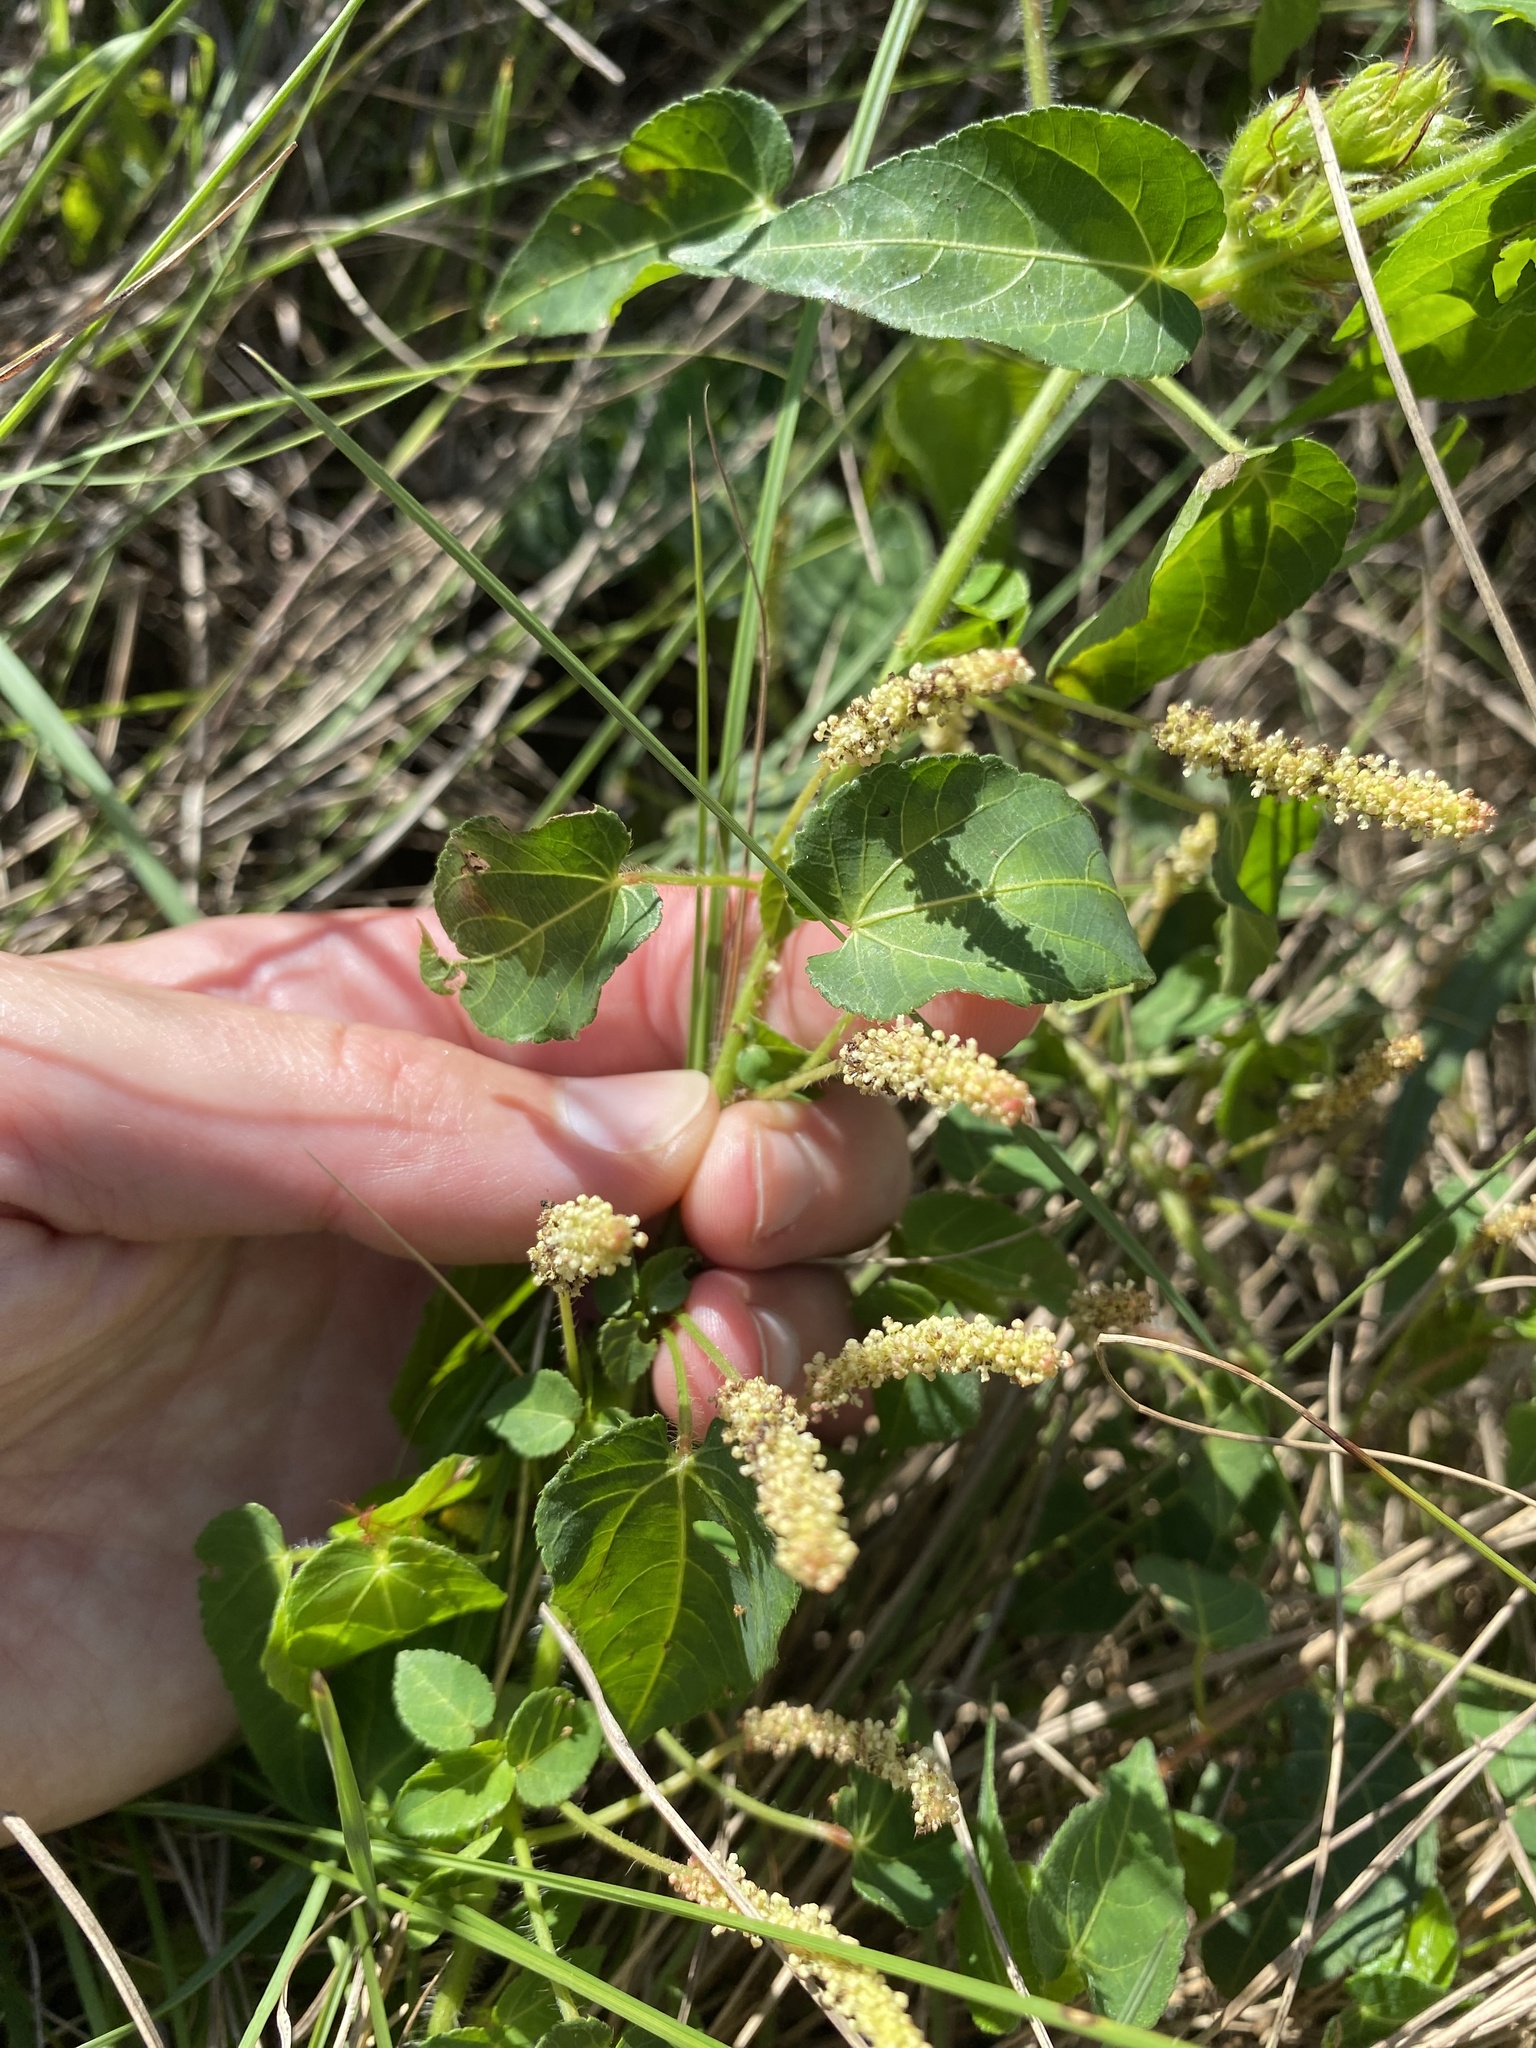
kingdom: Plantae
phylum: Tracheophyta
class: Magnoliopsida
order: Malpighiales
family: Euphorbiaceae
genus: Acalypha
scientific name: Acalypha petiolaris
